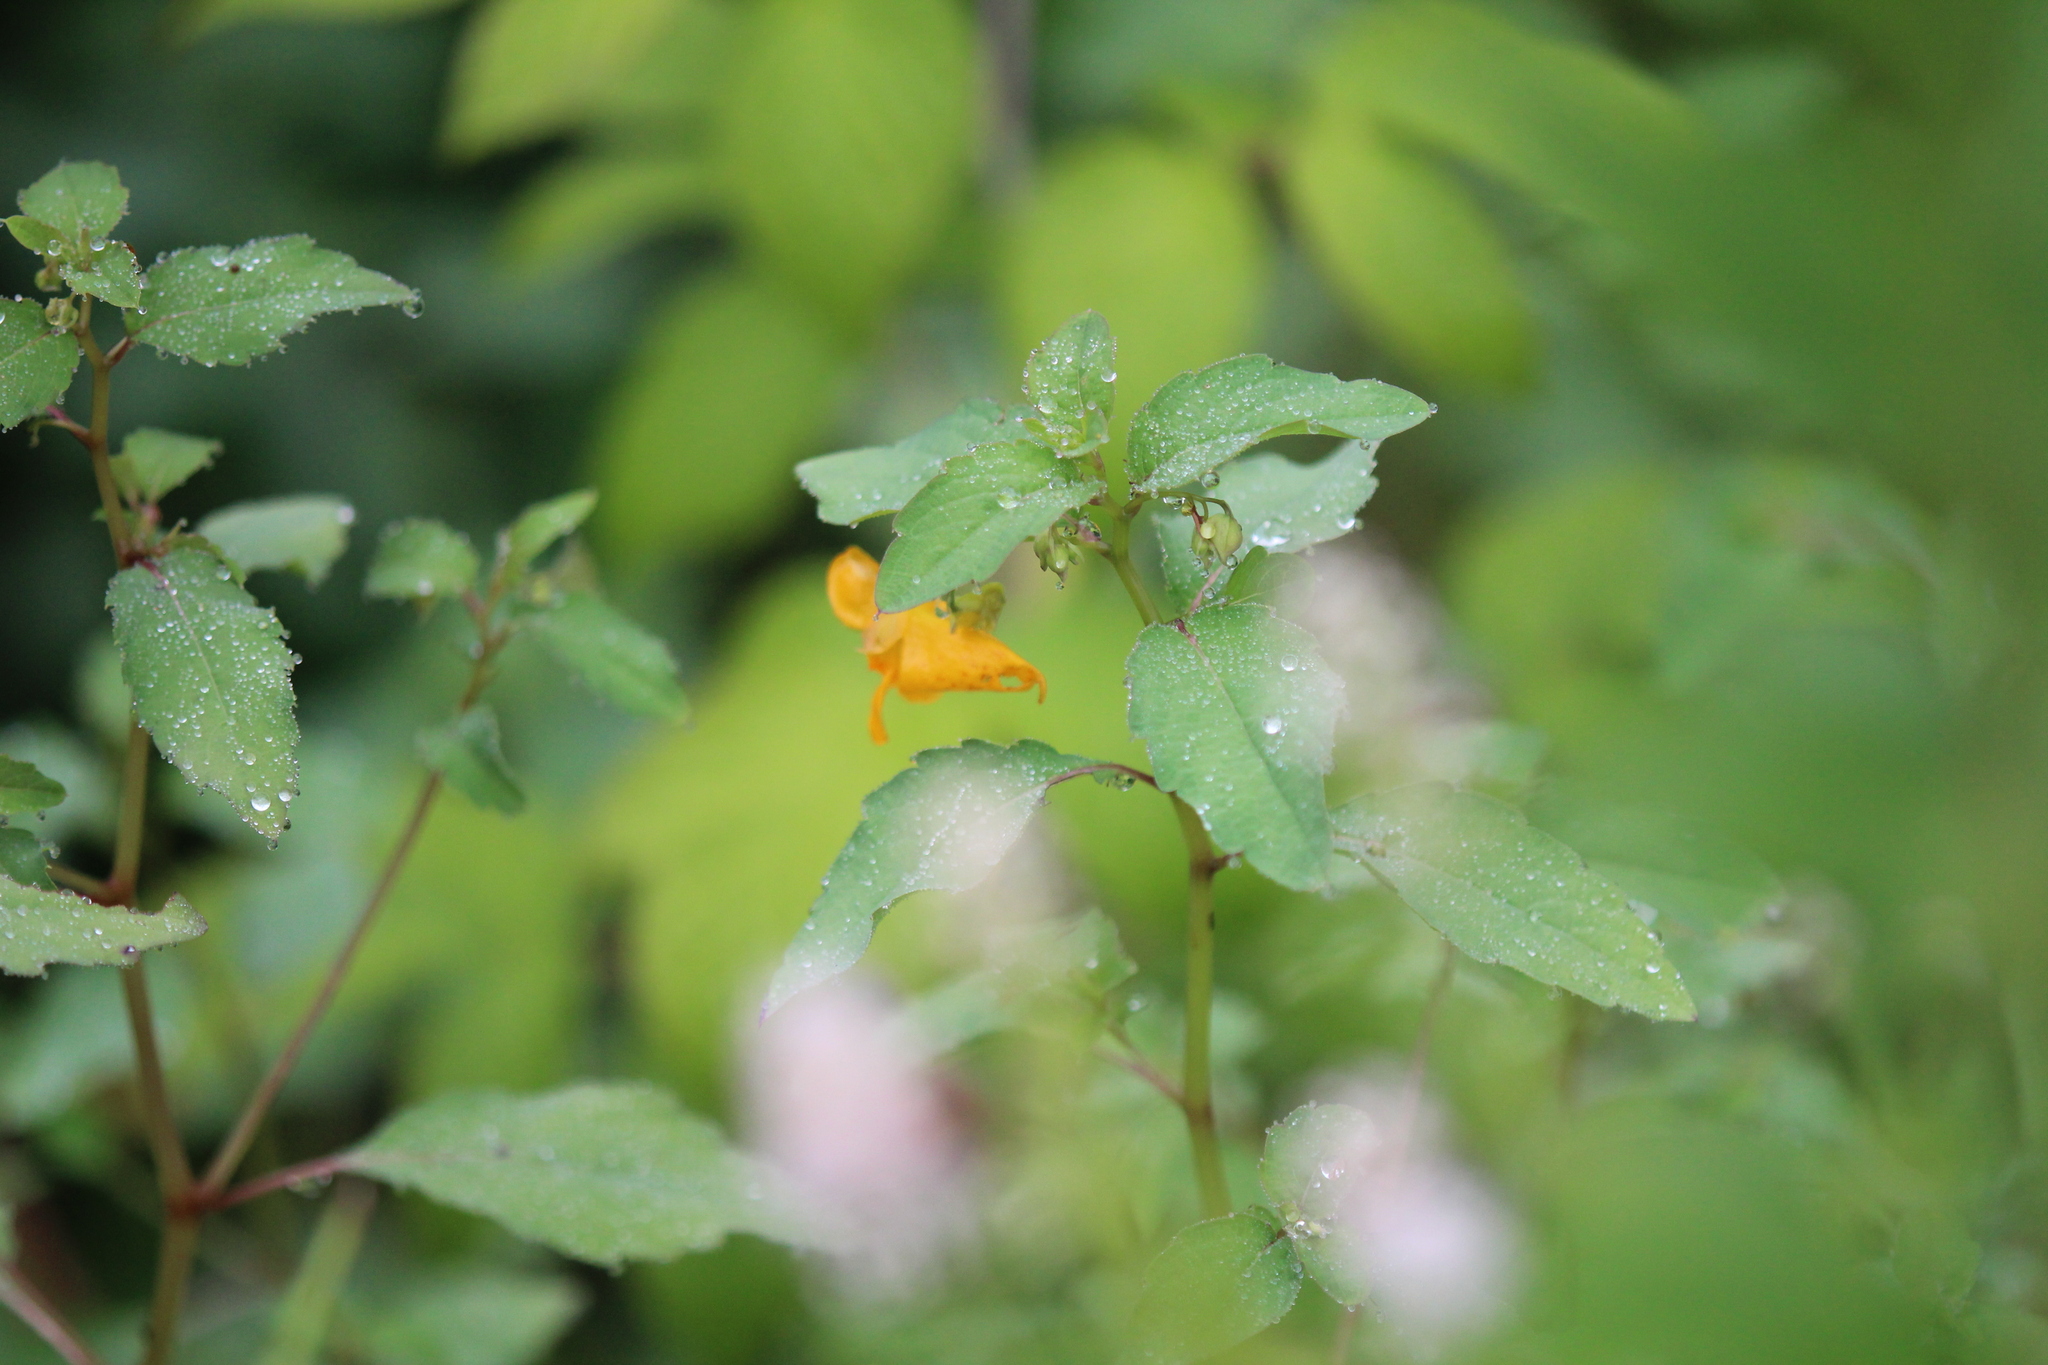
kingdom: Plantae
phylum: Tracheophyta
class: Magnoliopsida
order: Ericales
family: Balsaminaceae
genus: Impatiens
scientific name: Impatiens capensis
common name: Orange balsam
